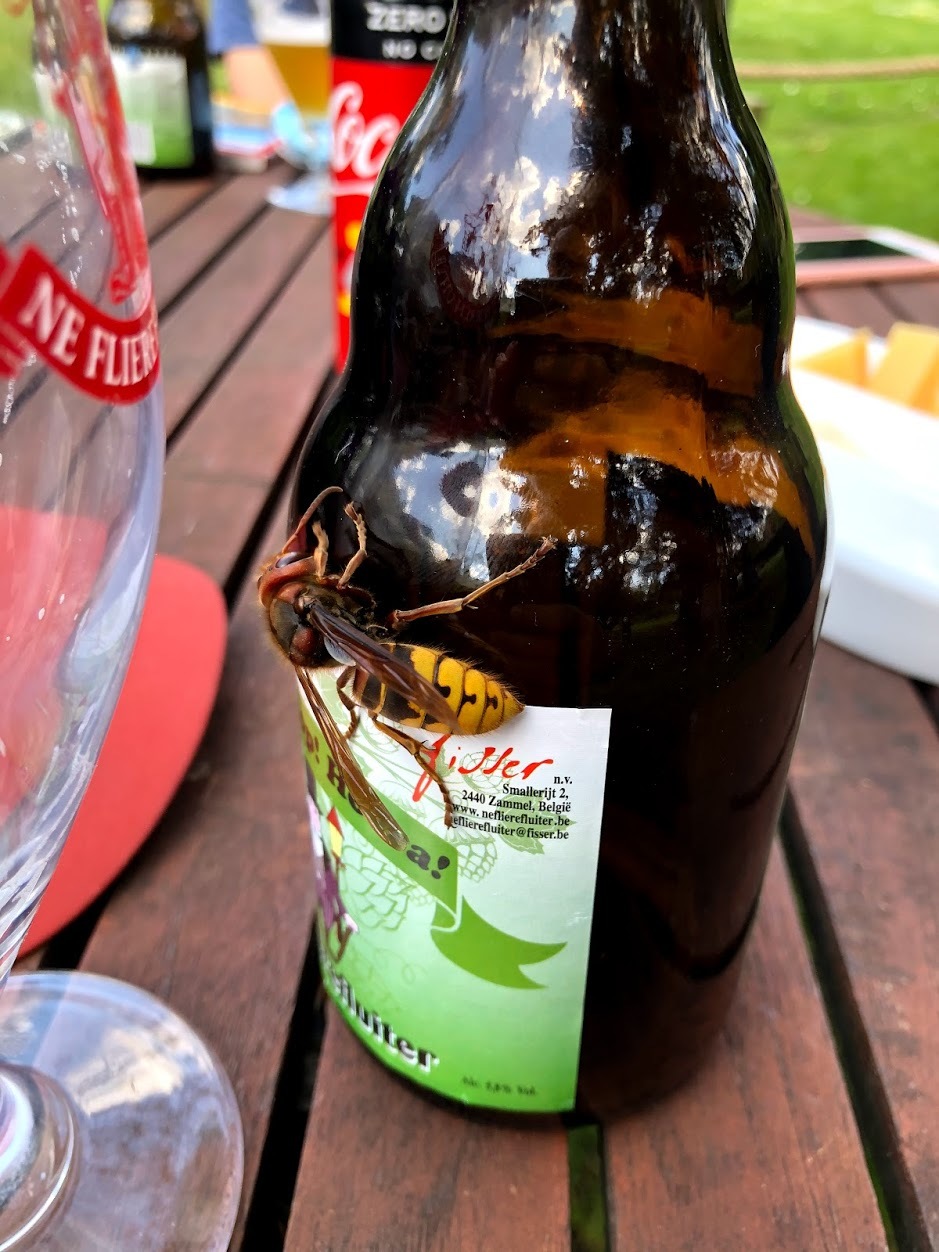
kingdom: Animalia
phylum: Arthropoda
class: Insecta
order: Hymenoptera
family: Vespidae
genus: Vespa
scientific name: Vespa crabro
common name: Hornet
